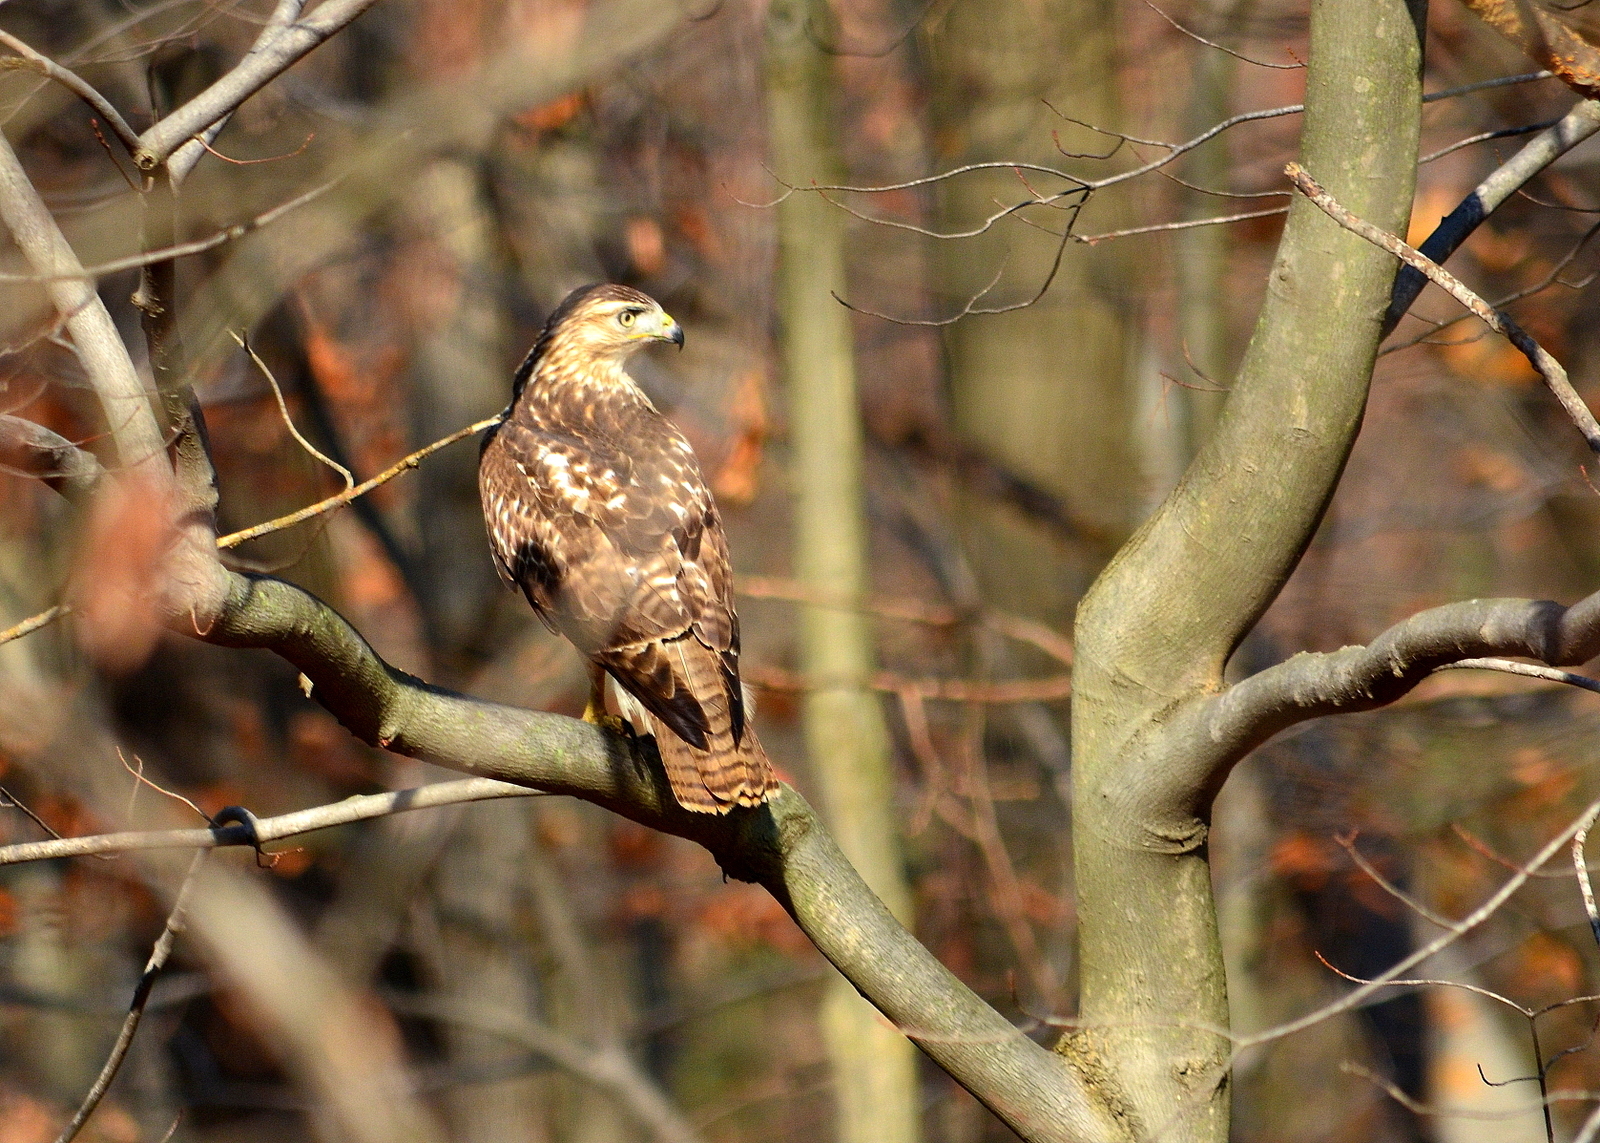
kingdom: Animalia
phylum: Chordata
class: Aves
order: Accipitriformes
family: Accipitridae
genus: Buteo
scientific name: Buteo jamaicensis
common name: Red-tailed hawk
